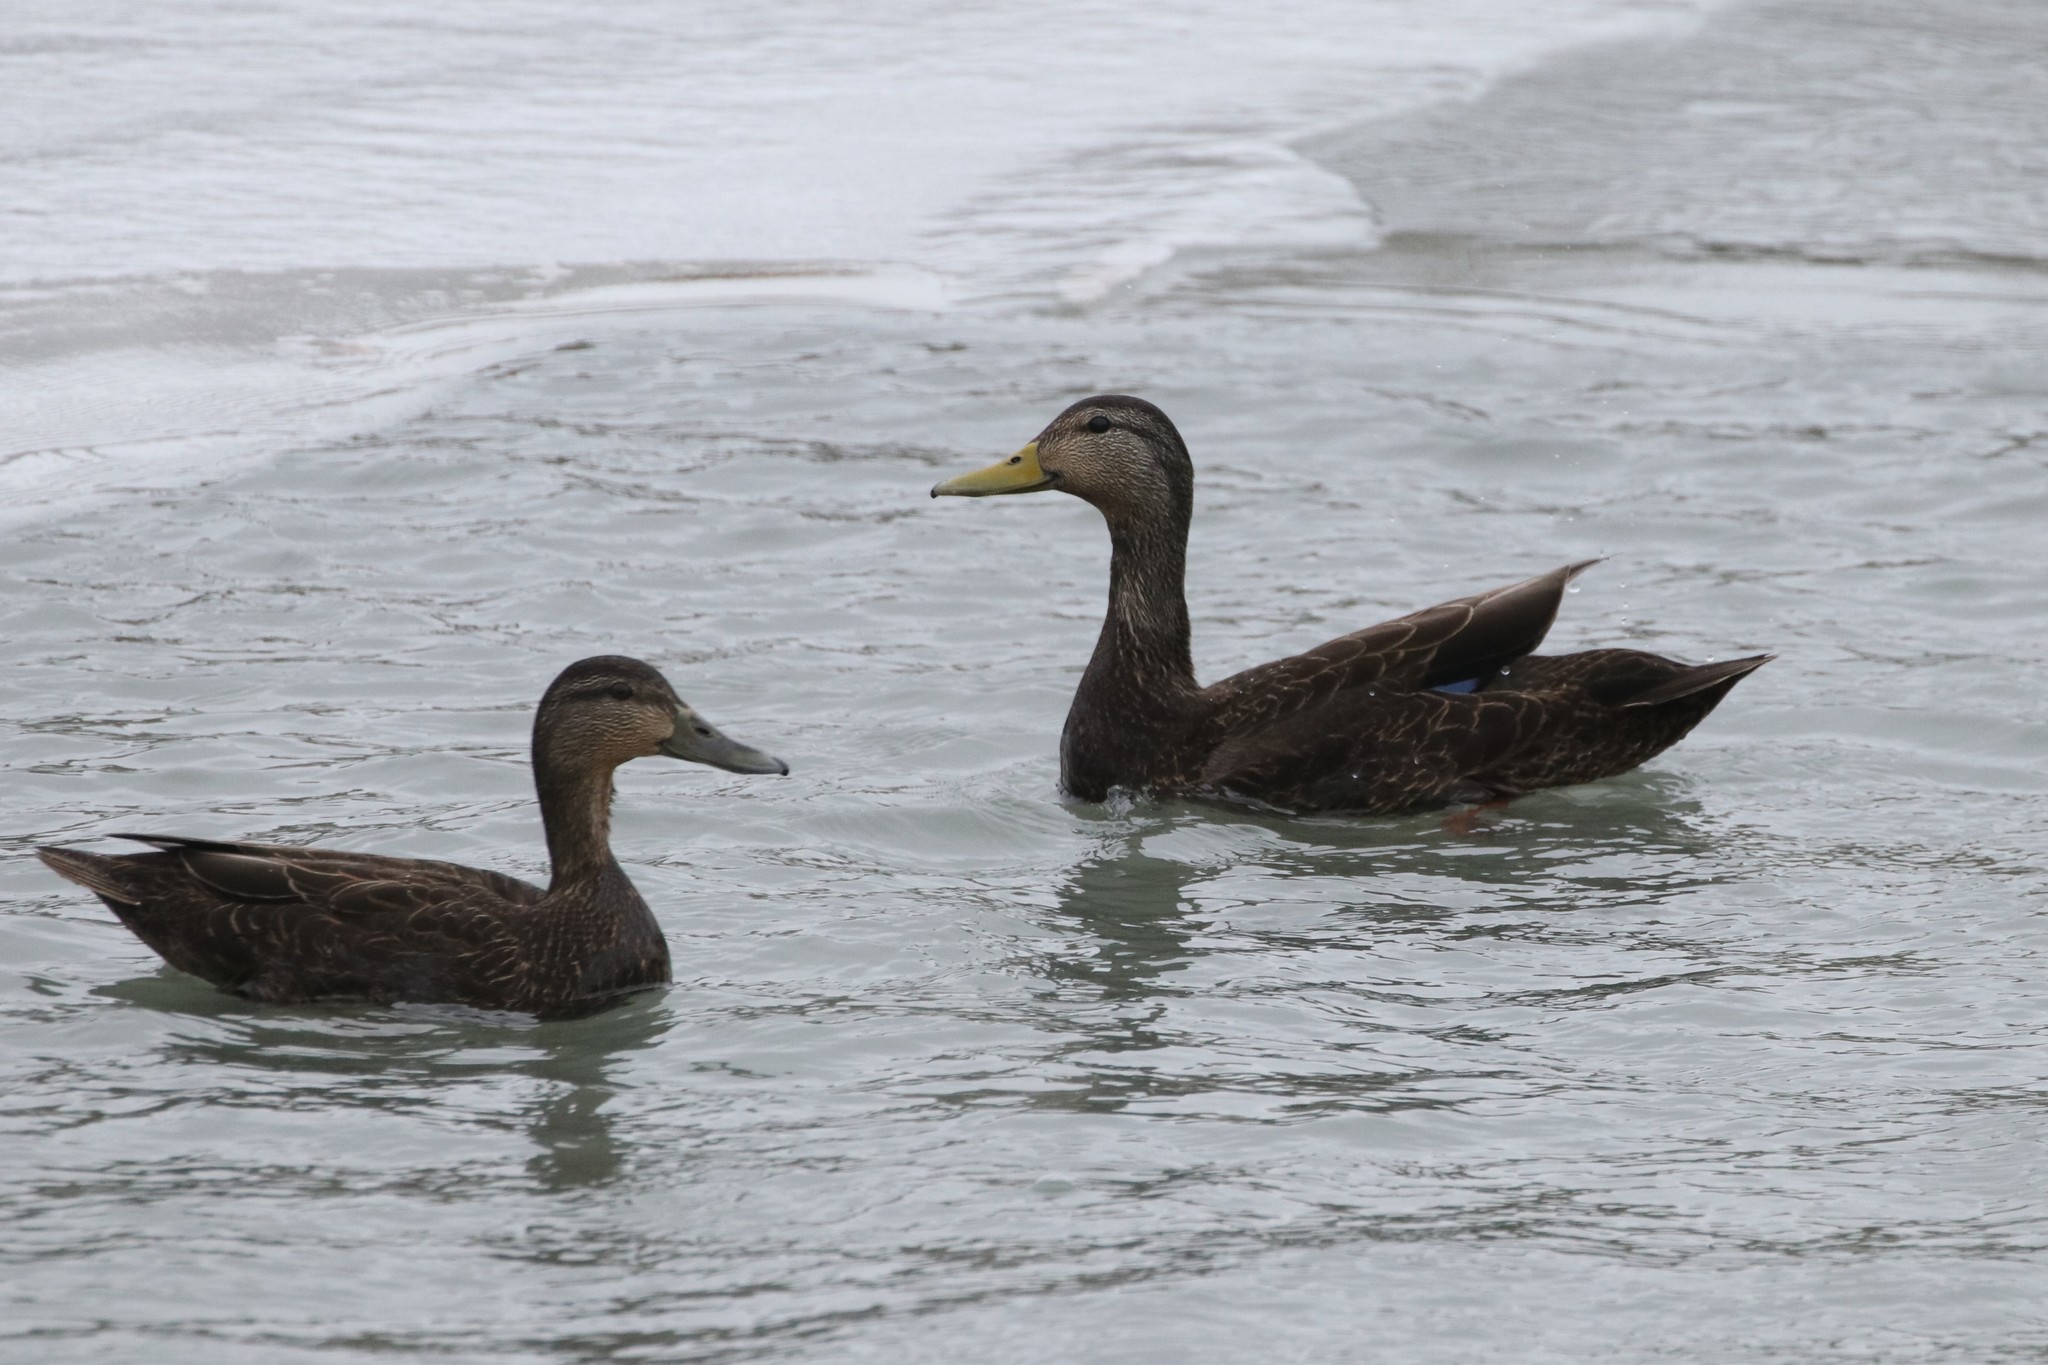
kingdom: Animalia
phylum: Chordata
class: Aves
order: Anseriformes
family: Anatidae
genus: Anas
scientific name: Anas rubripes
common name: American black duck
